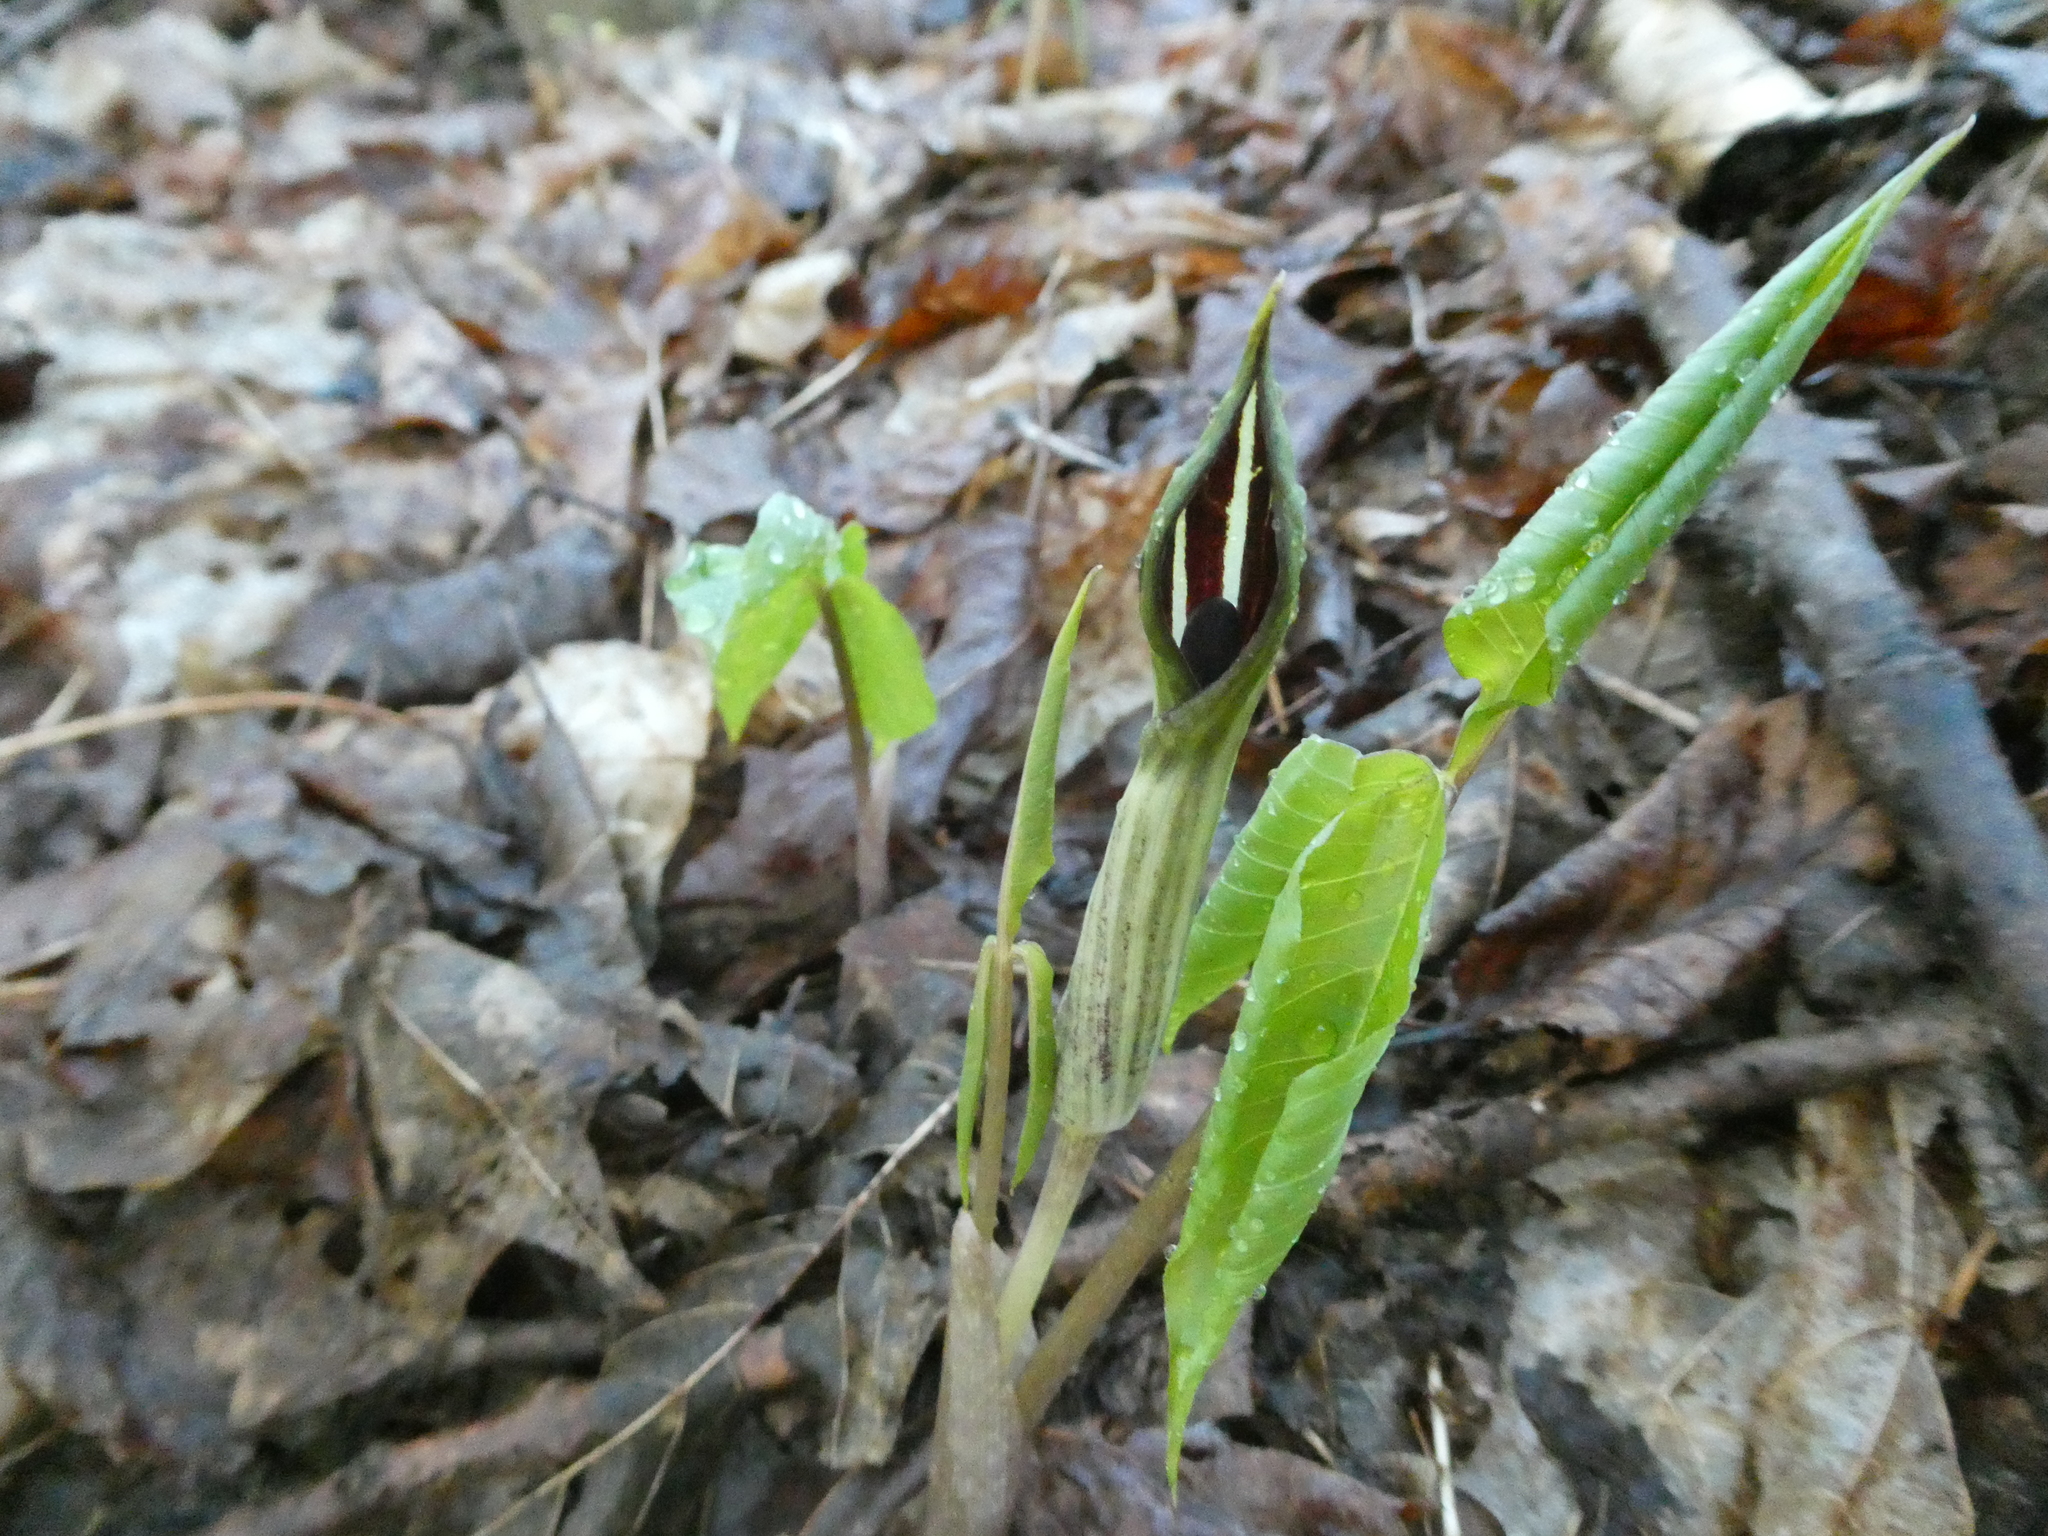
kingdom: Plantae
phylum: Tracheophyta
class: Liliopsida
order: Alismatales
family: Araceae
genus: Arisaema
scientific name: Arisaema triphyllum
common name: Jack-in-the-pulpit
